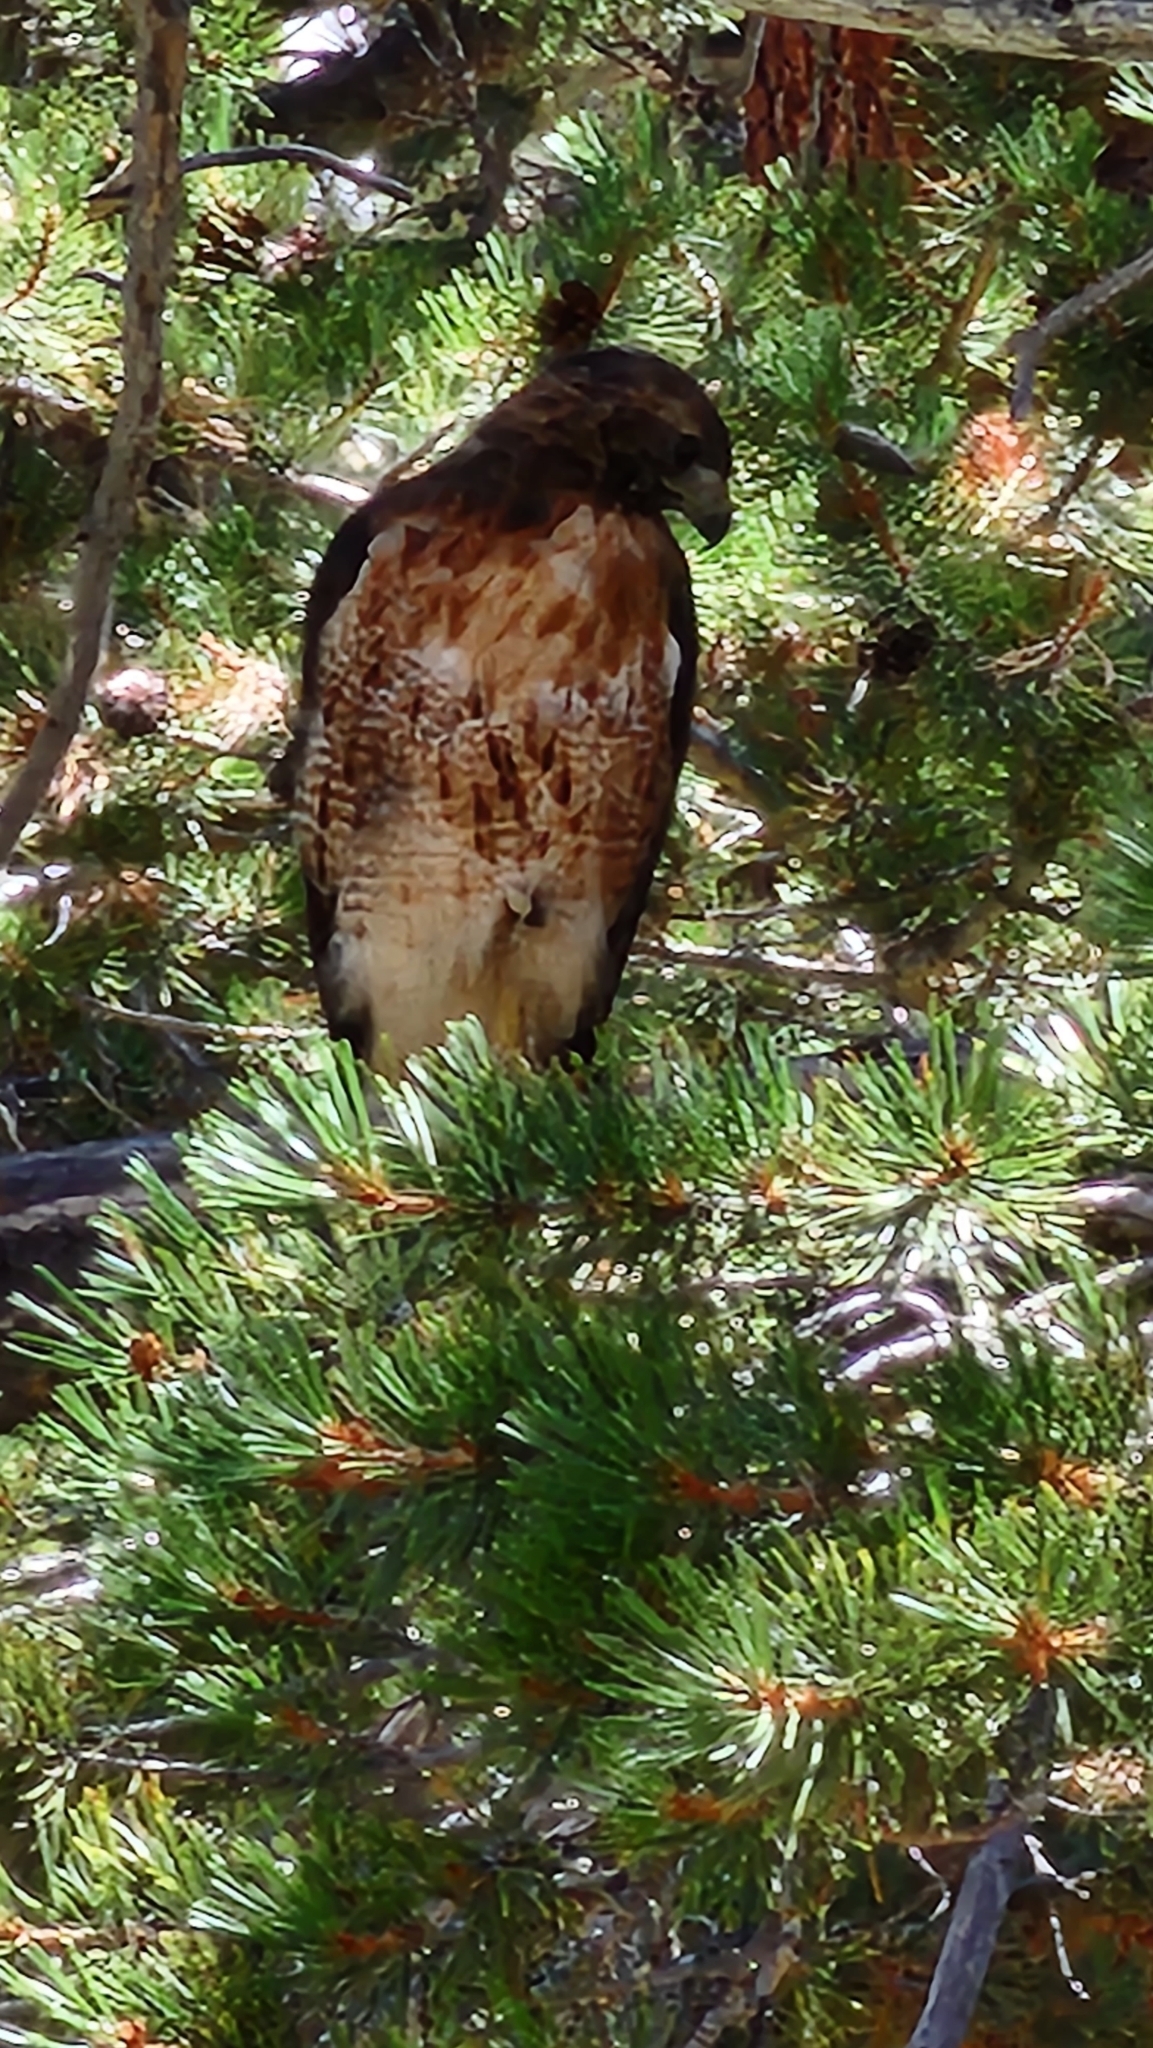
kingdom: Animalia
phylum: Chordata
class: Aves
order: Accipitriformes
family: Accipitridae
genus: Buteo
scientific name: Buteo jamaicensis
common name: Red-tailed hawk
